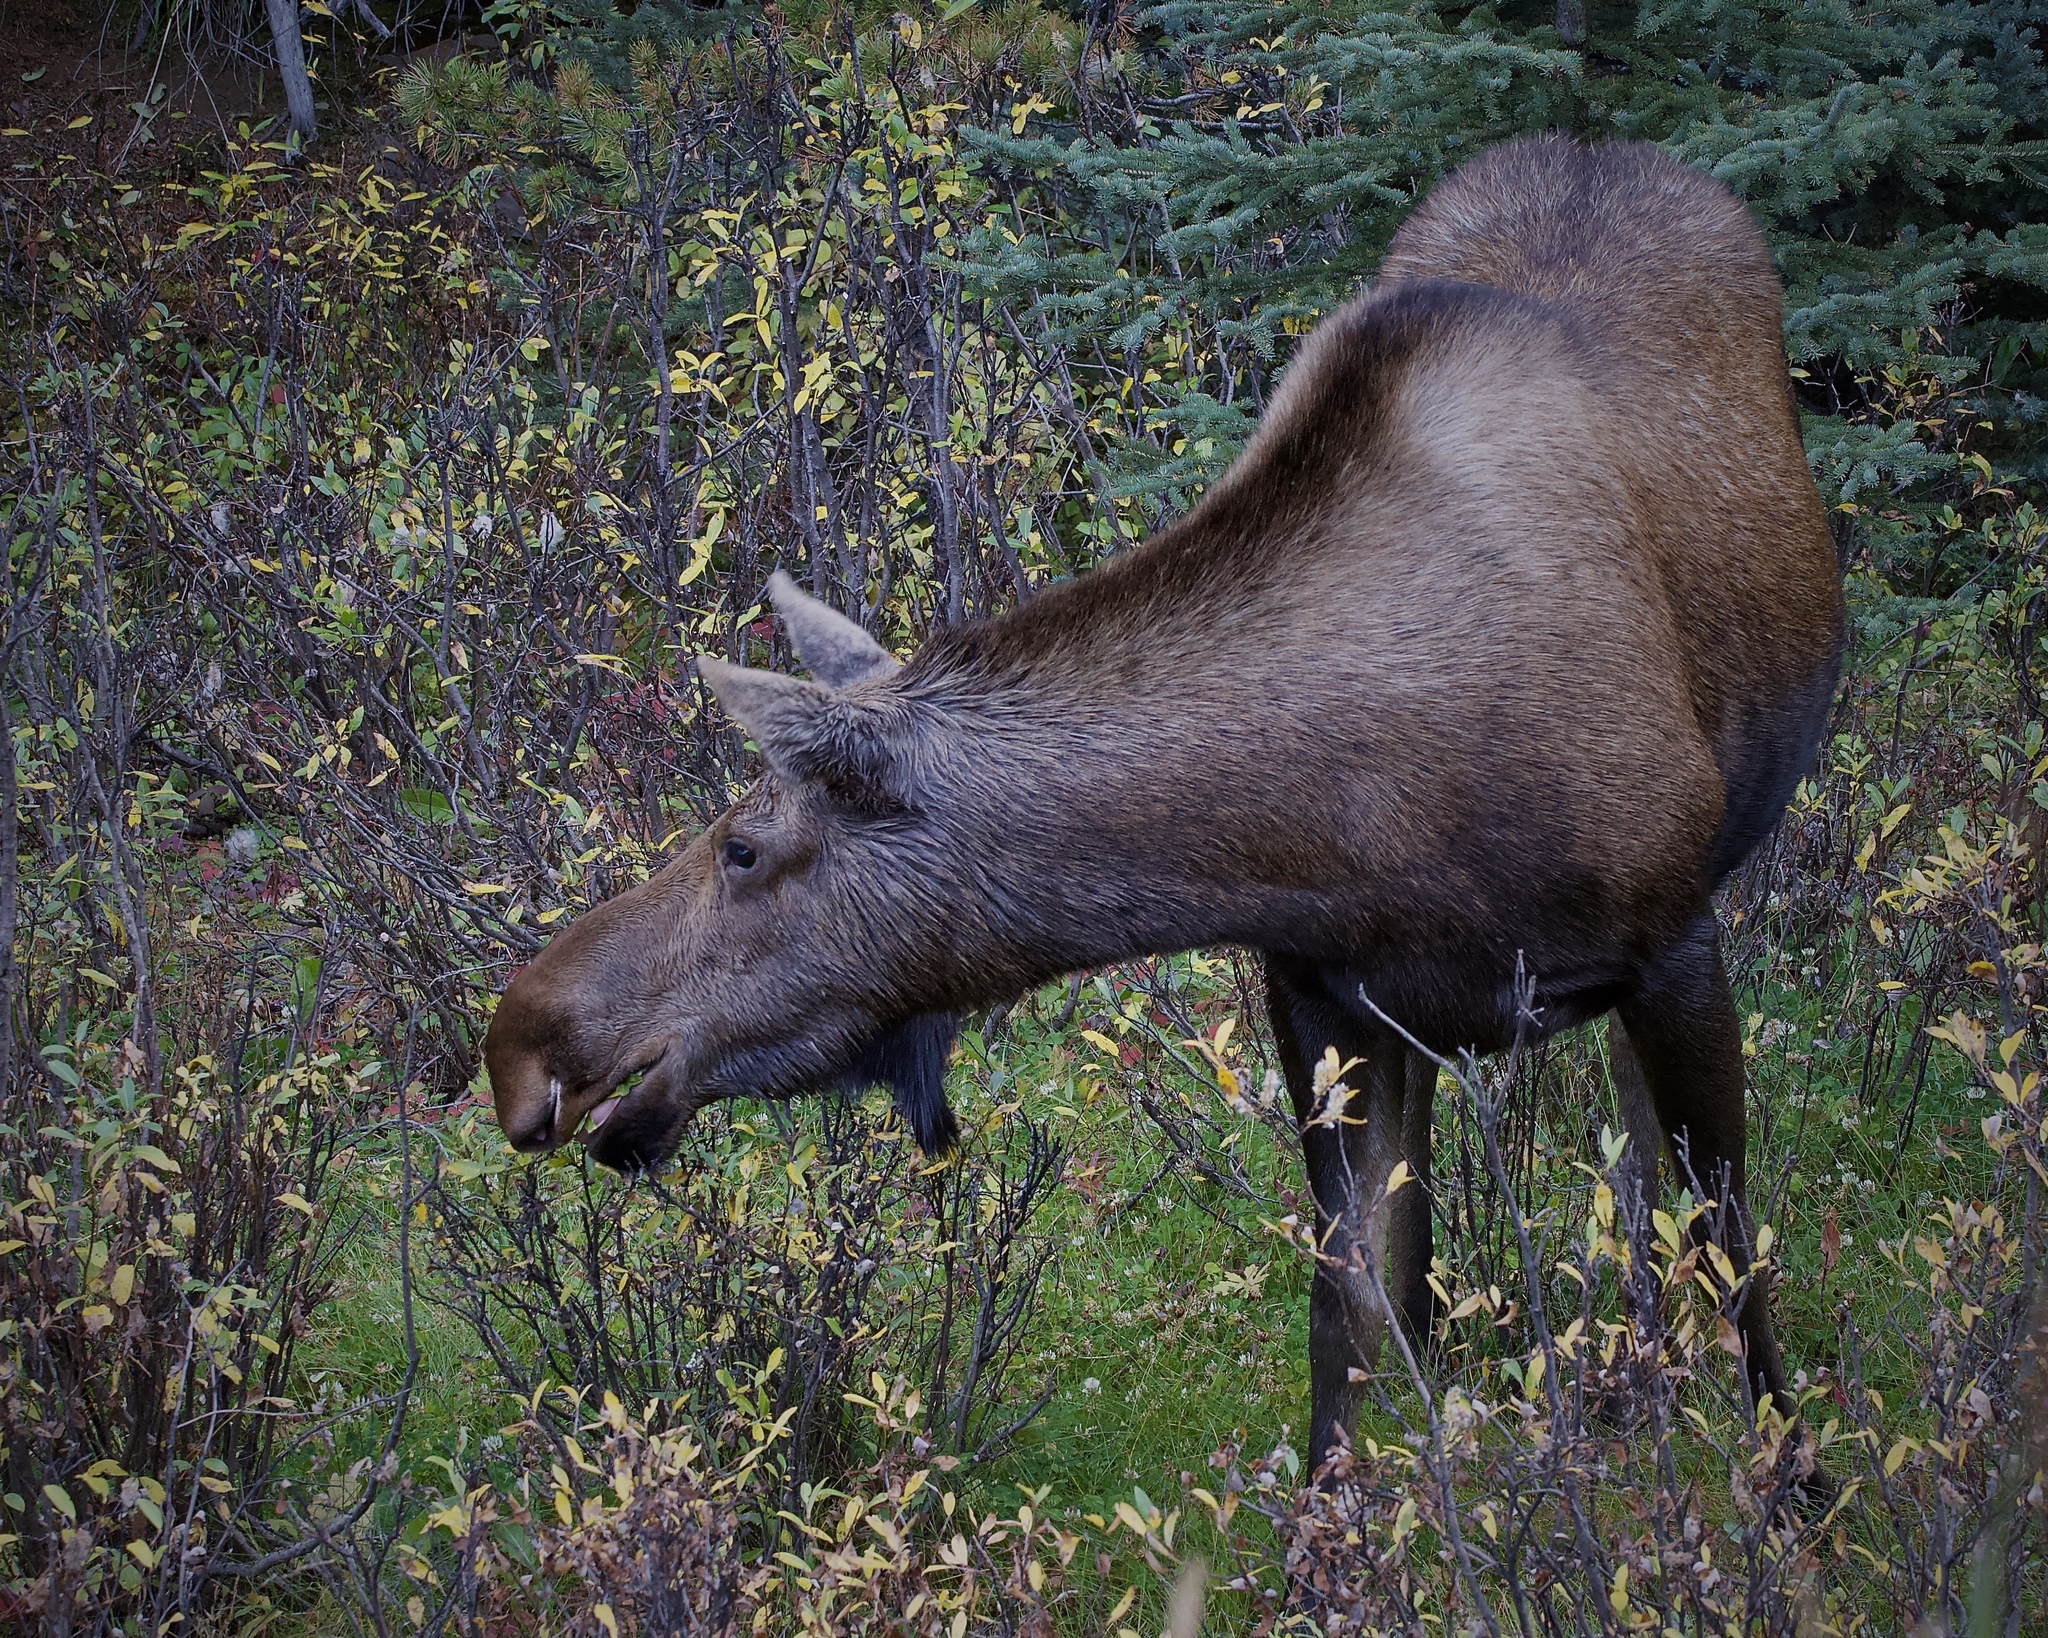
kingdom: Animalia
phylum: Chordata
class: Mammalia
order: Artiodactyla
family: Cervidae
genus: Alces
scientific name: Alces americanus
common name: Moose
